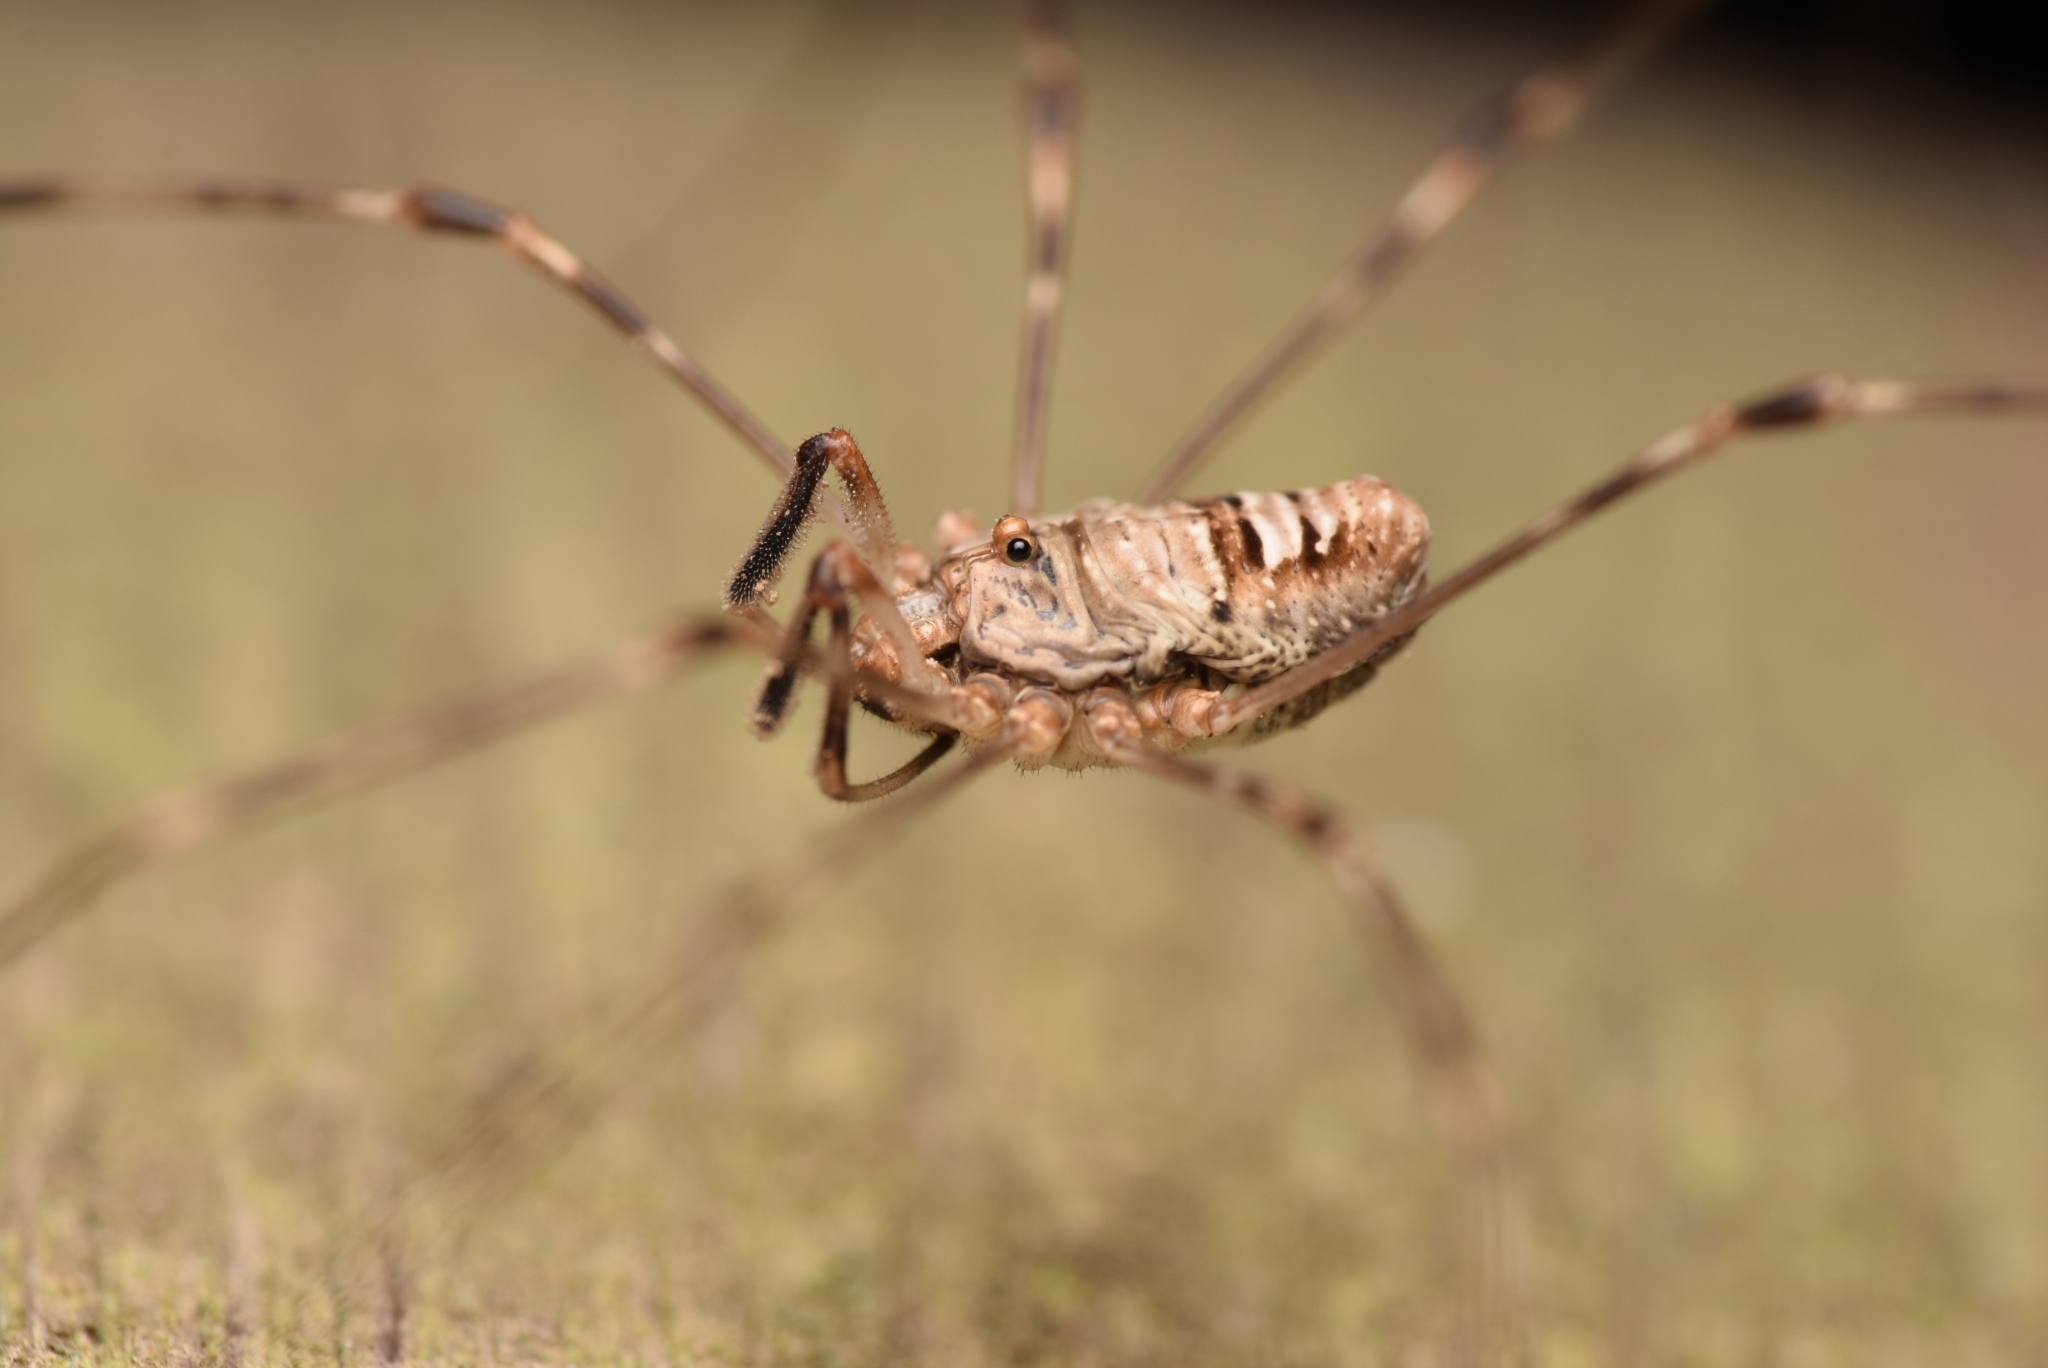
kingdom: Animalia
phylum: Arthropoda
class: Arachnida
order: Opiliones
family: Phalangiidae
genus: Dicranopalpus
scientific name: Dicranopalpus ramosus
